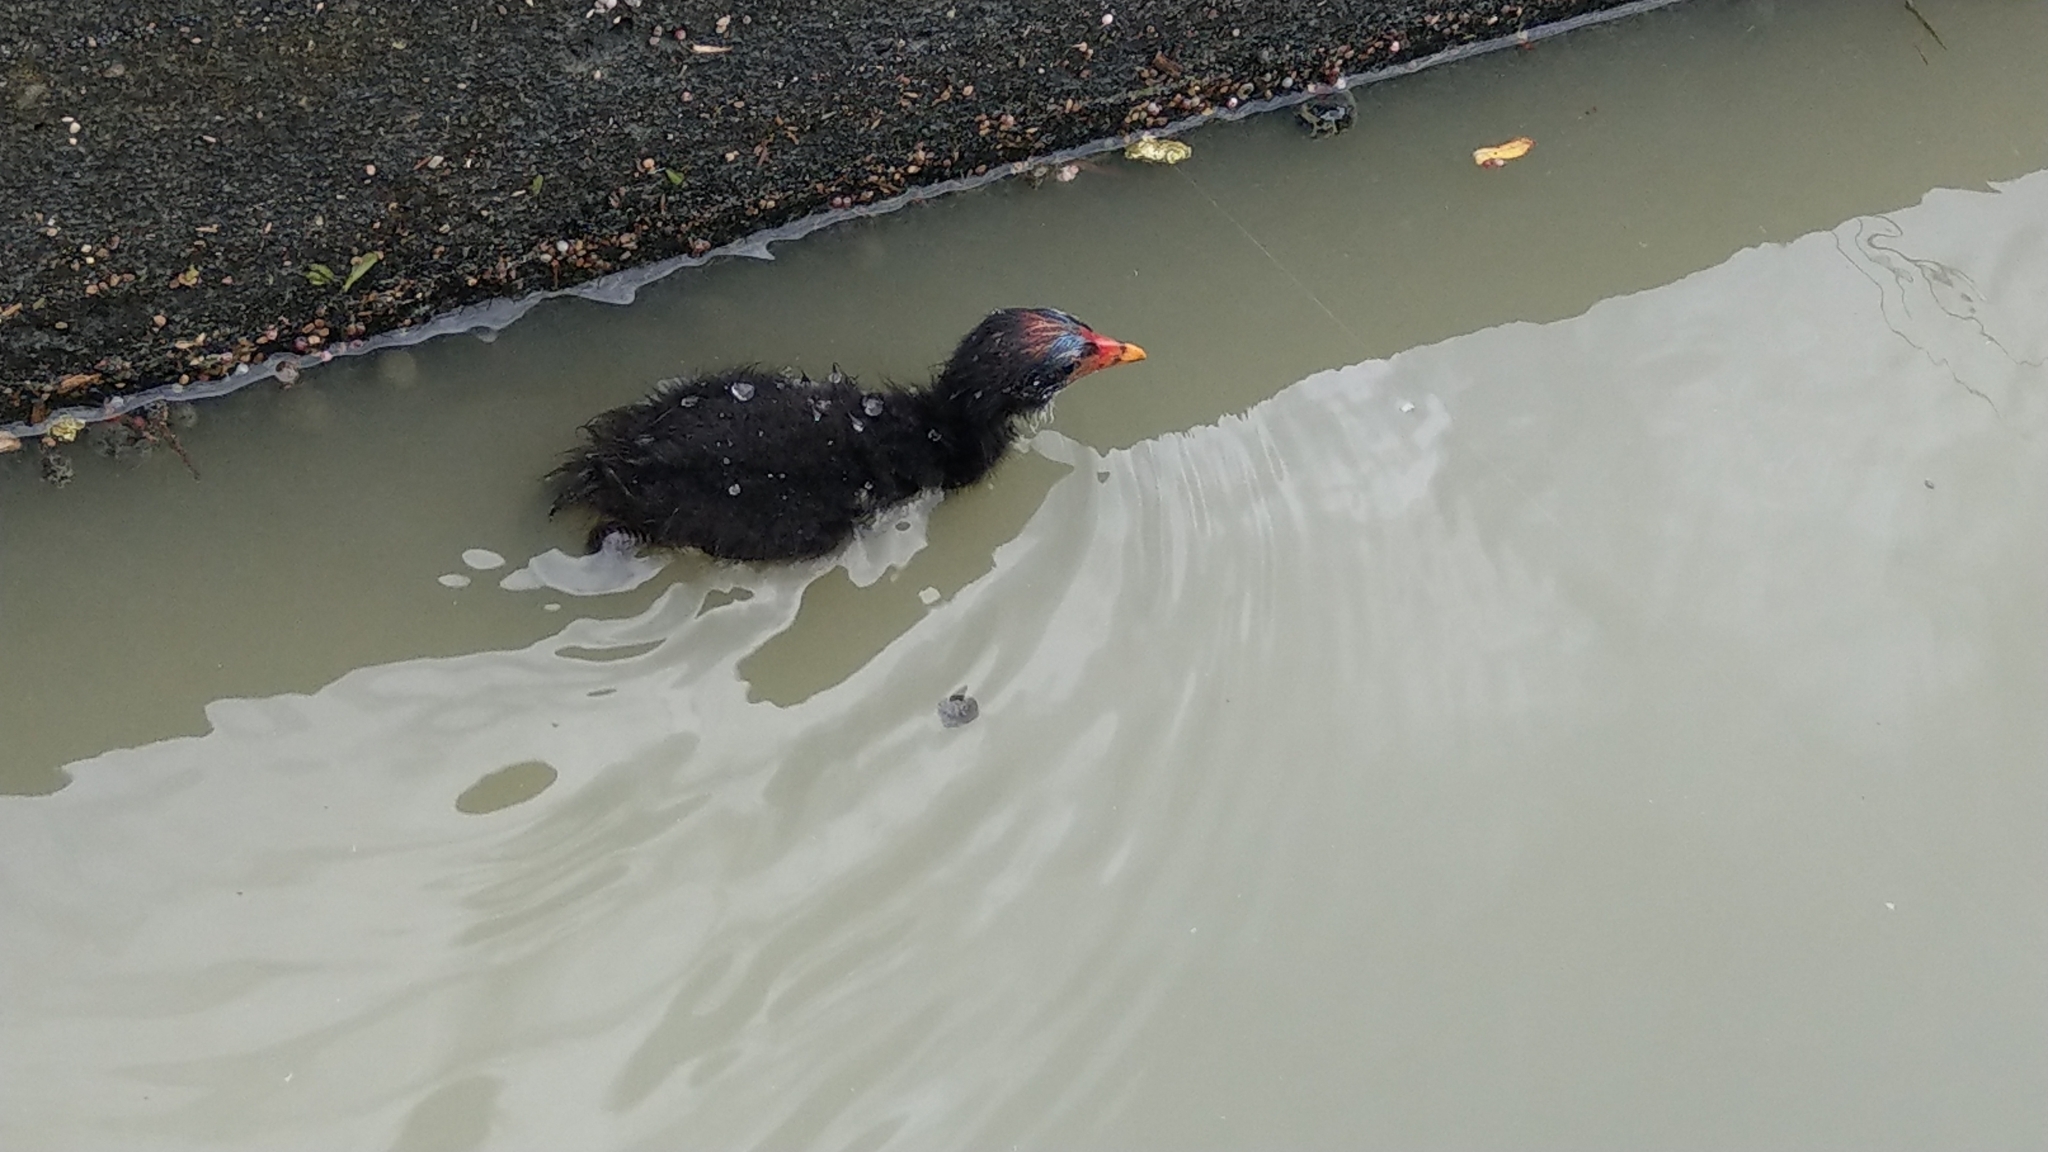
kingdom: Animalia
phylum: Chordata
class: Aves
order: Gruiformes
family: Rallidae
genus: Gallinula
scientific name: Gallinula chloropus
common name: Common moorhen
